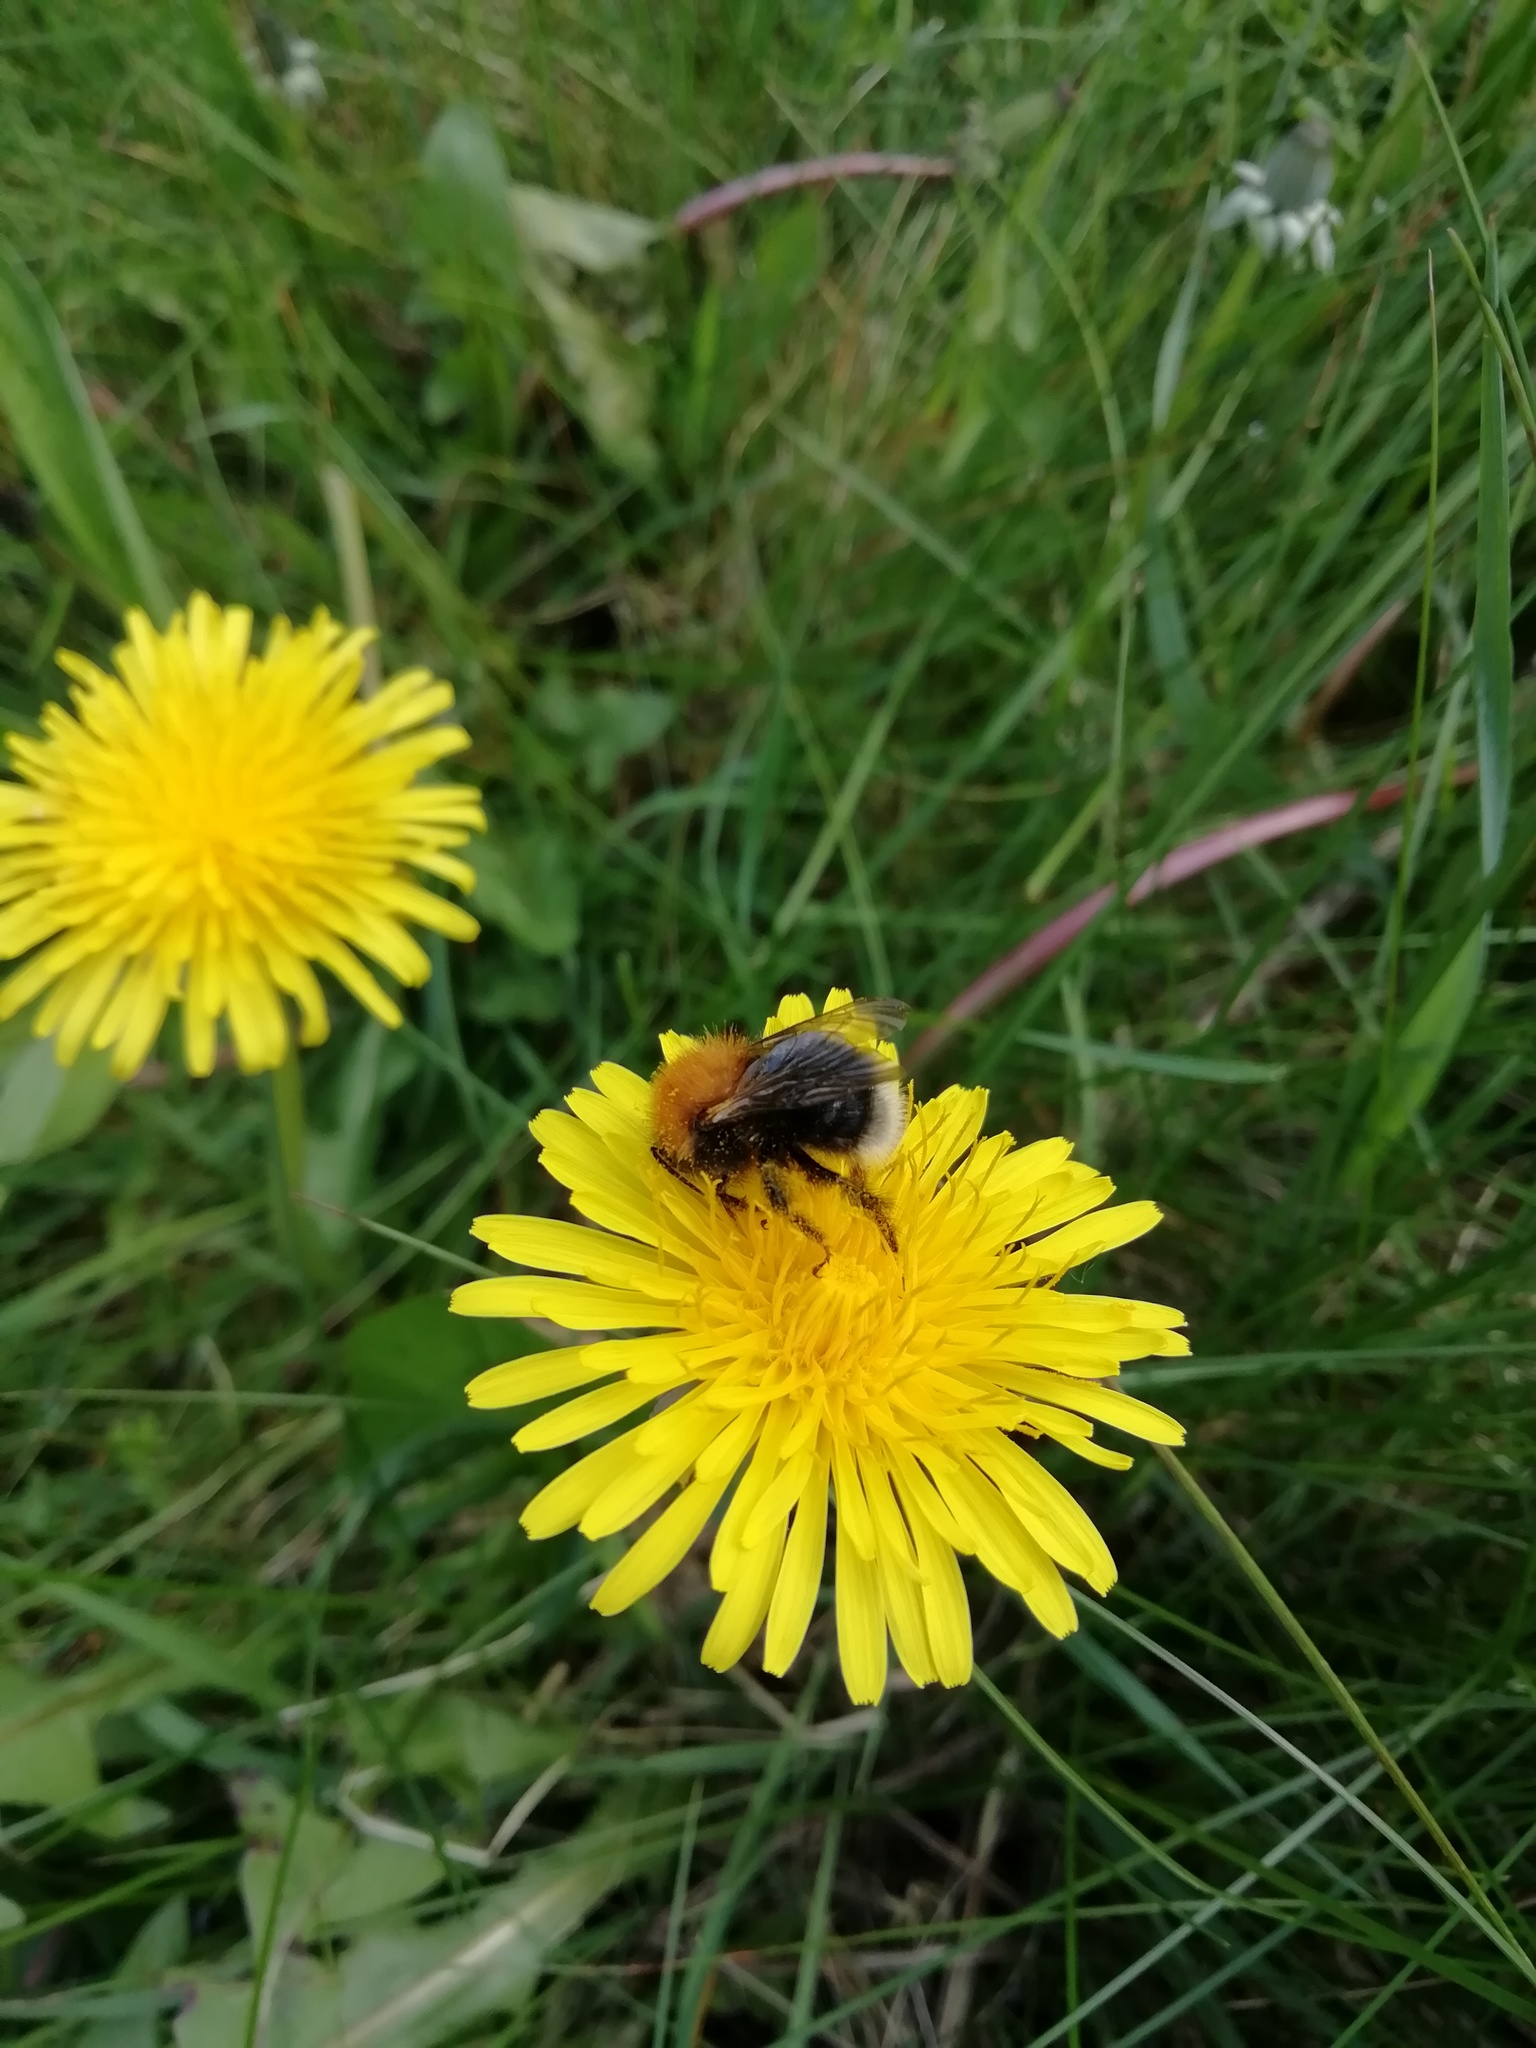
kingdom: Animalia
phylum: Arthropoda
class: Insecta
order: Hymenoptera
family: Apidae
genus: Bombus
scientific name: Bombus hypnorum
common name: New garden bumblebee
